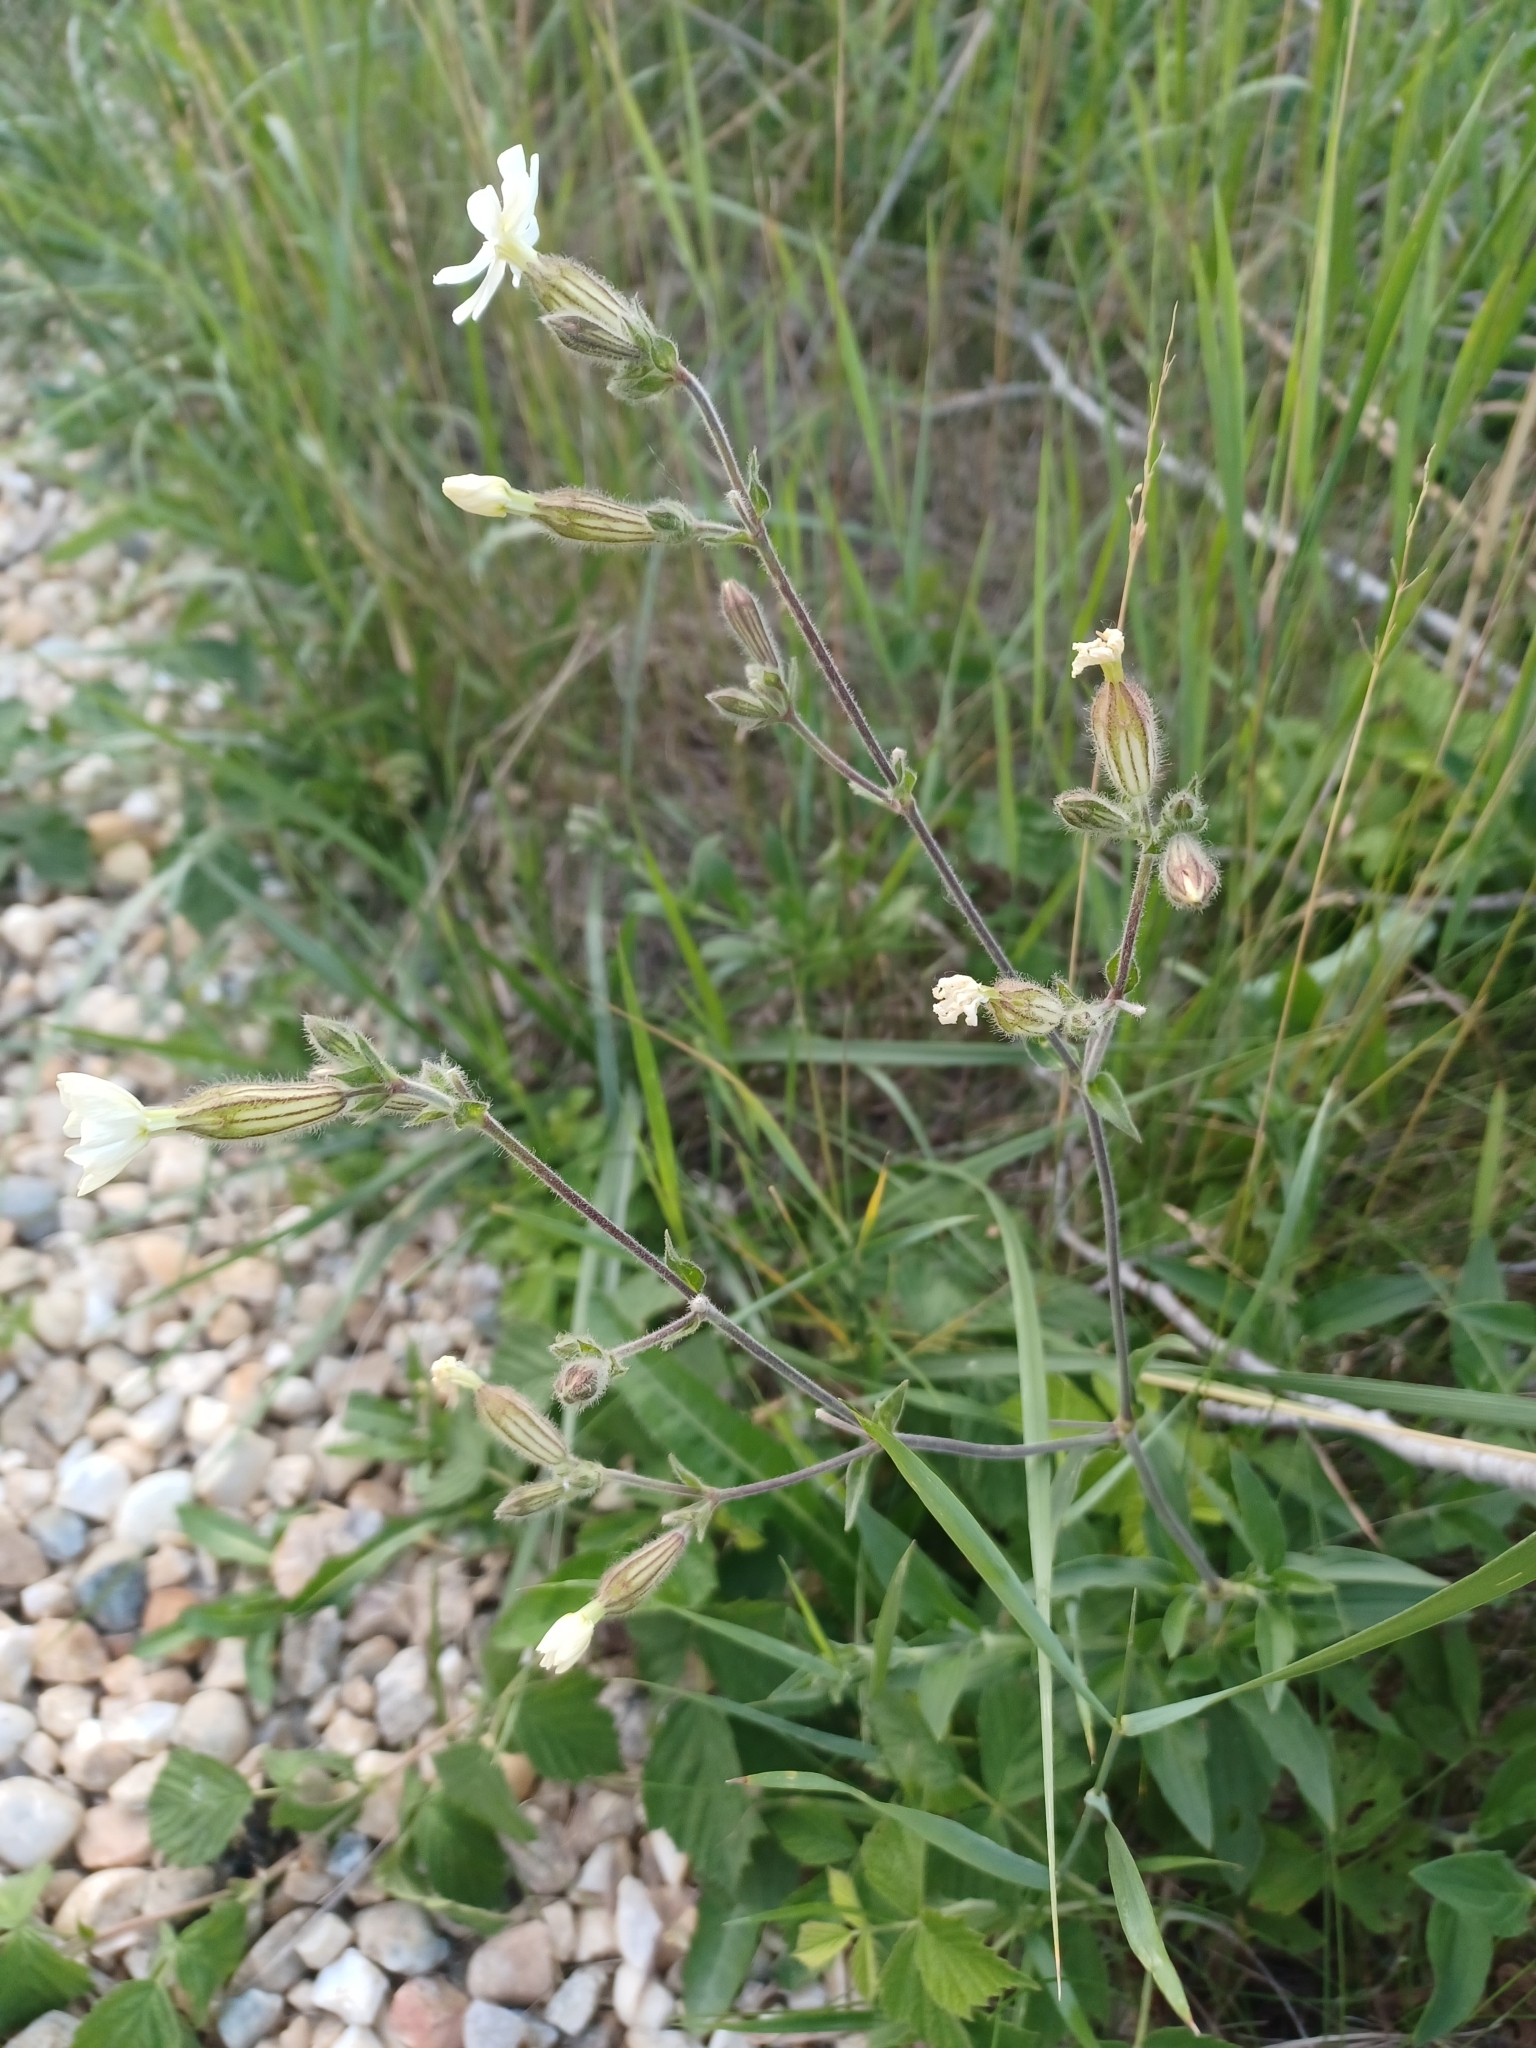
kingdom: Plantae
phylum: Tracheophyta
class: Magnoliopsida
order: Caryophyllales
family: Caryophyllaceae
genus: Silene
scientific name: Silene latifolia
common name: White campion
